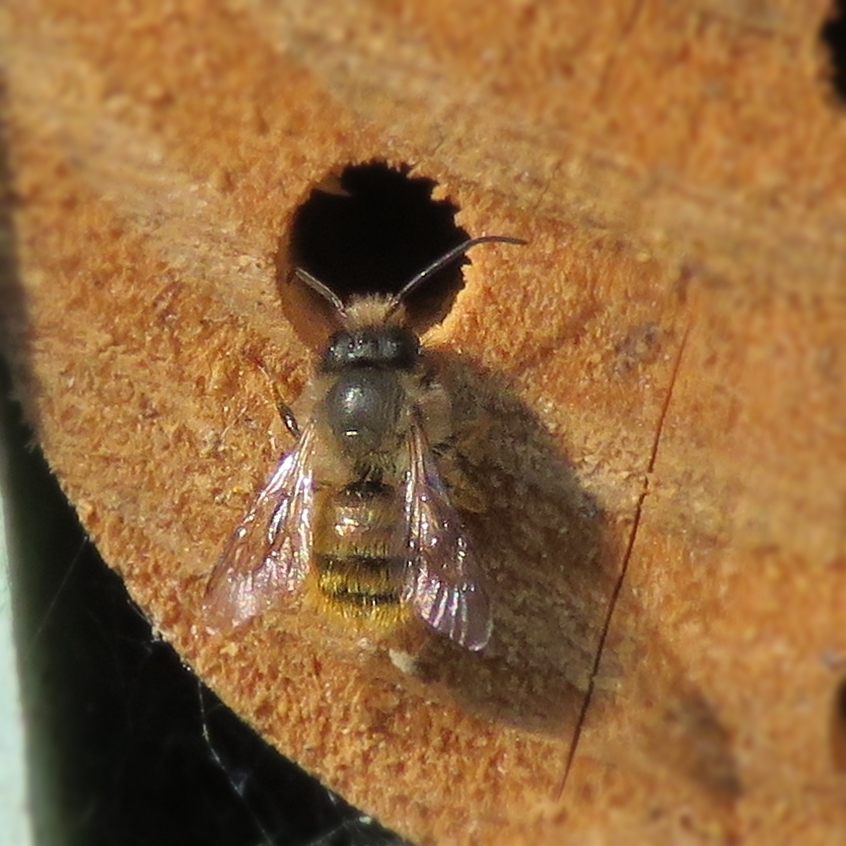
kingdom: Animalia
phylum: Arthropoda
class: Insecta
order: Hymenoptera
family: Megachilidae
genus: Osmia
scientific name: Osmia bicornis
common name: Red mason bee
